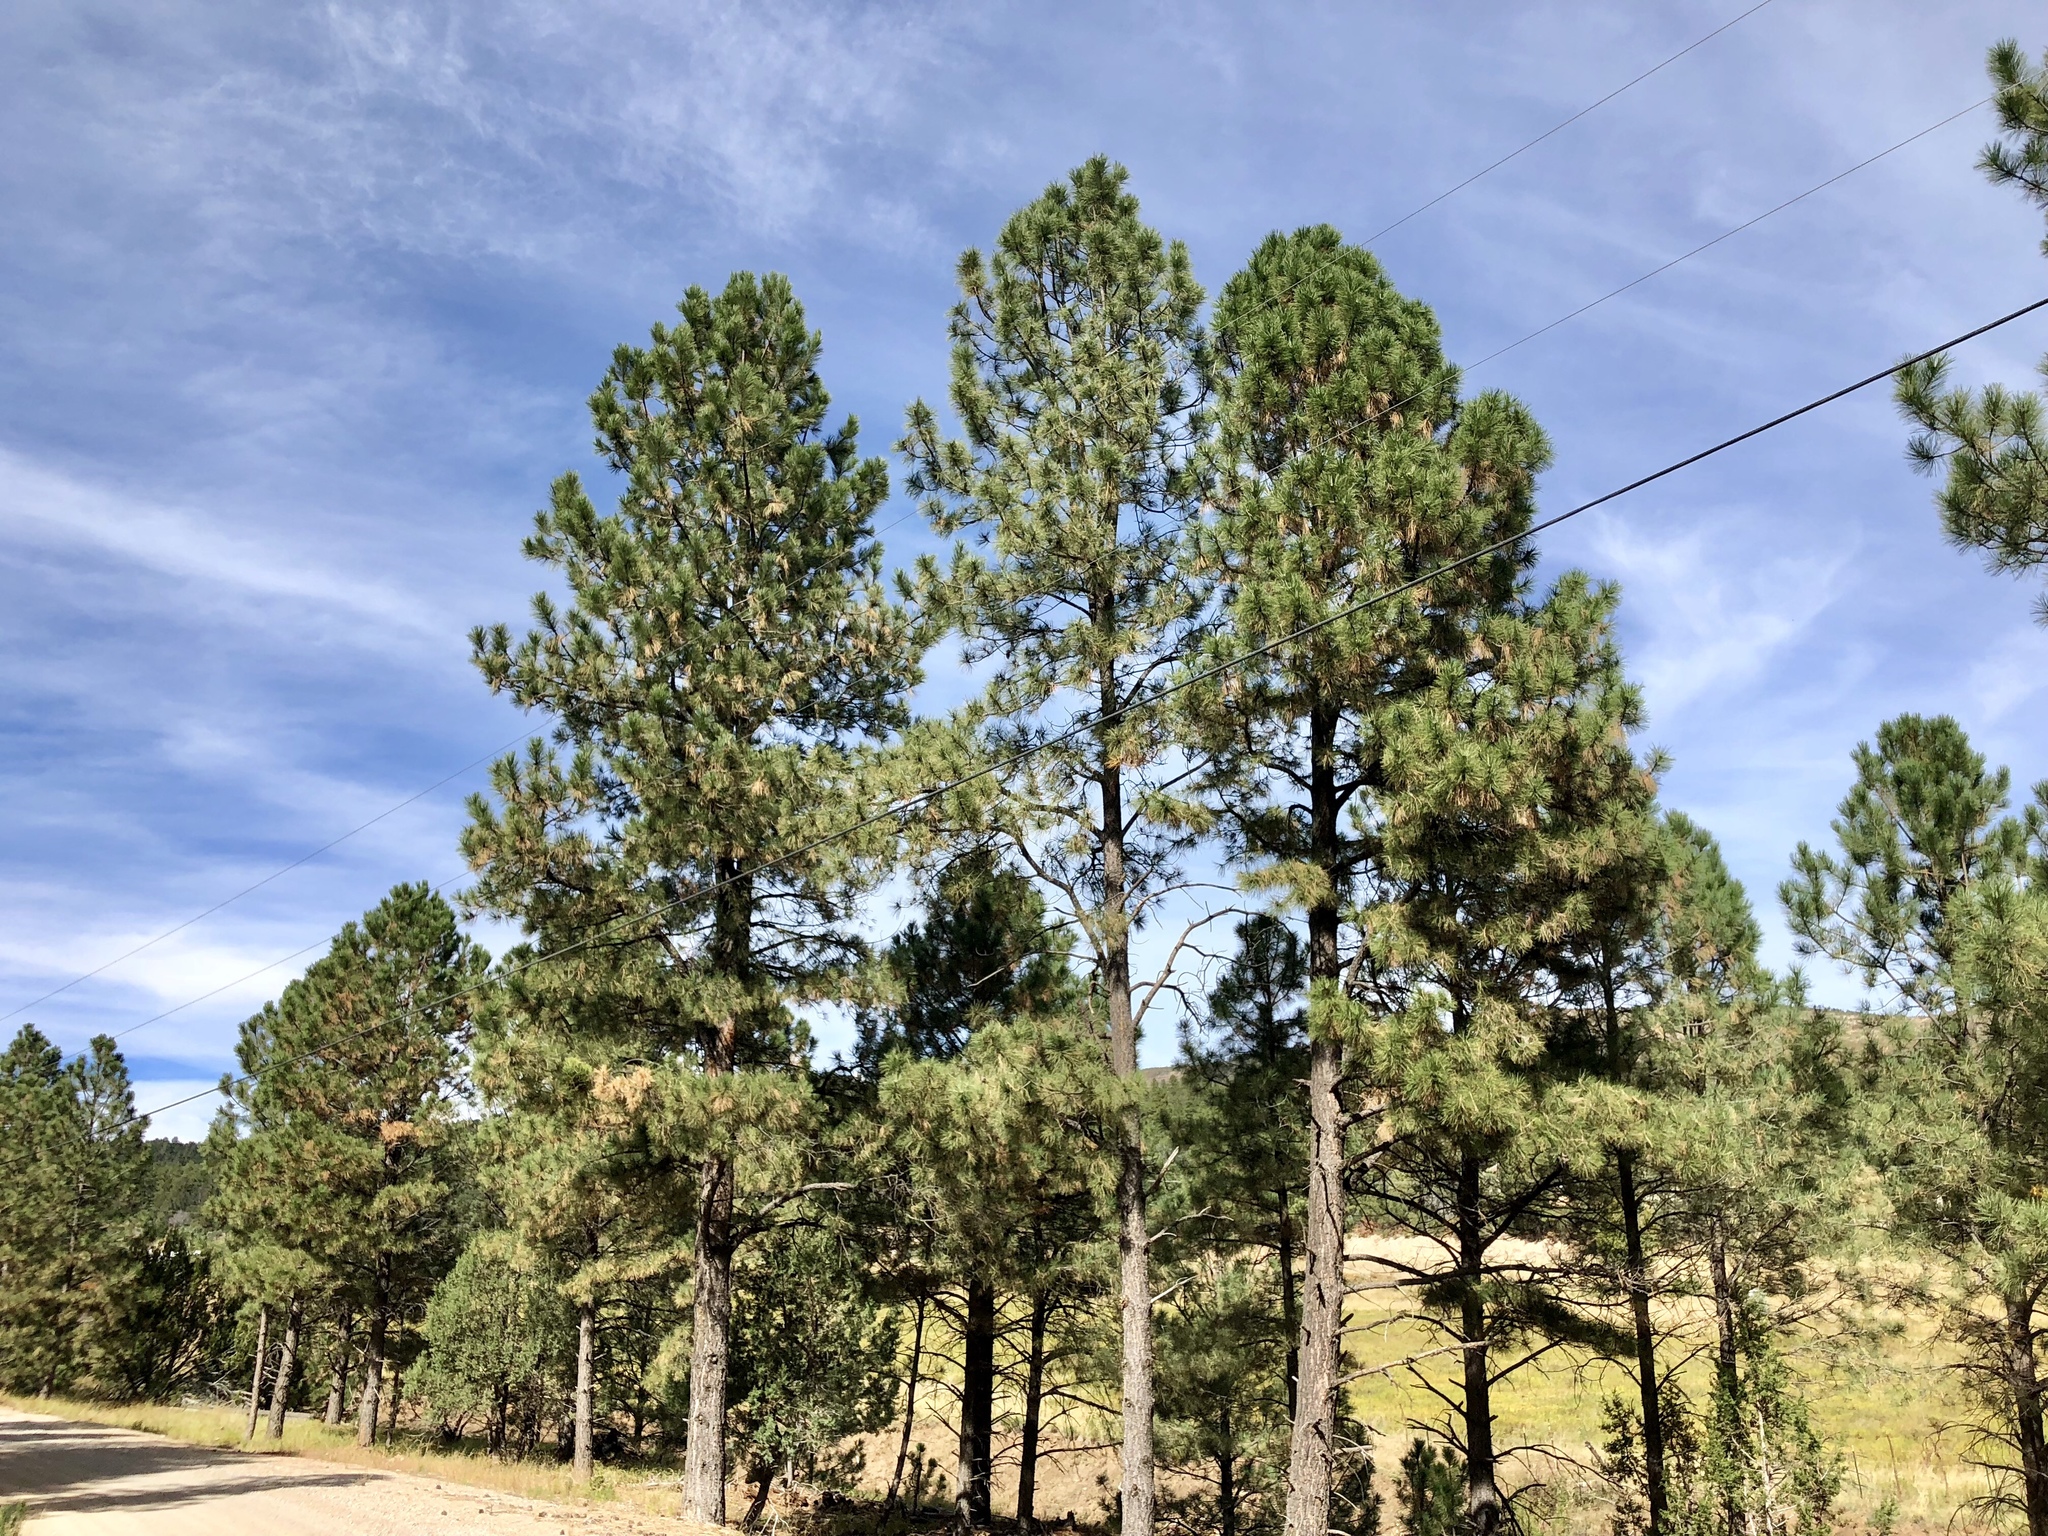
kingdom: Plantae
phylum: Tracheophyta
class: Pinopsida
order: Pinales
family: Pinaceae
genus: Pinus
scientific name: Pinus ponderosa
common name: Western yellow-pine
